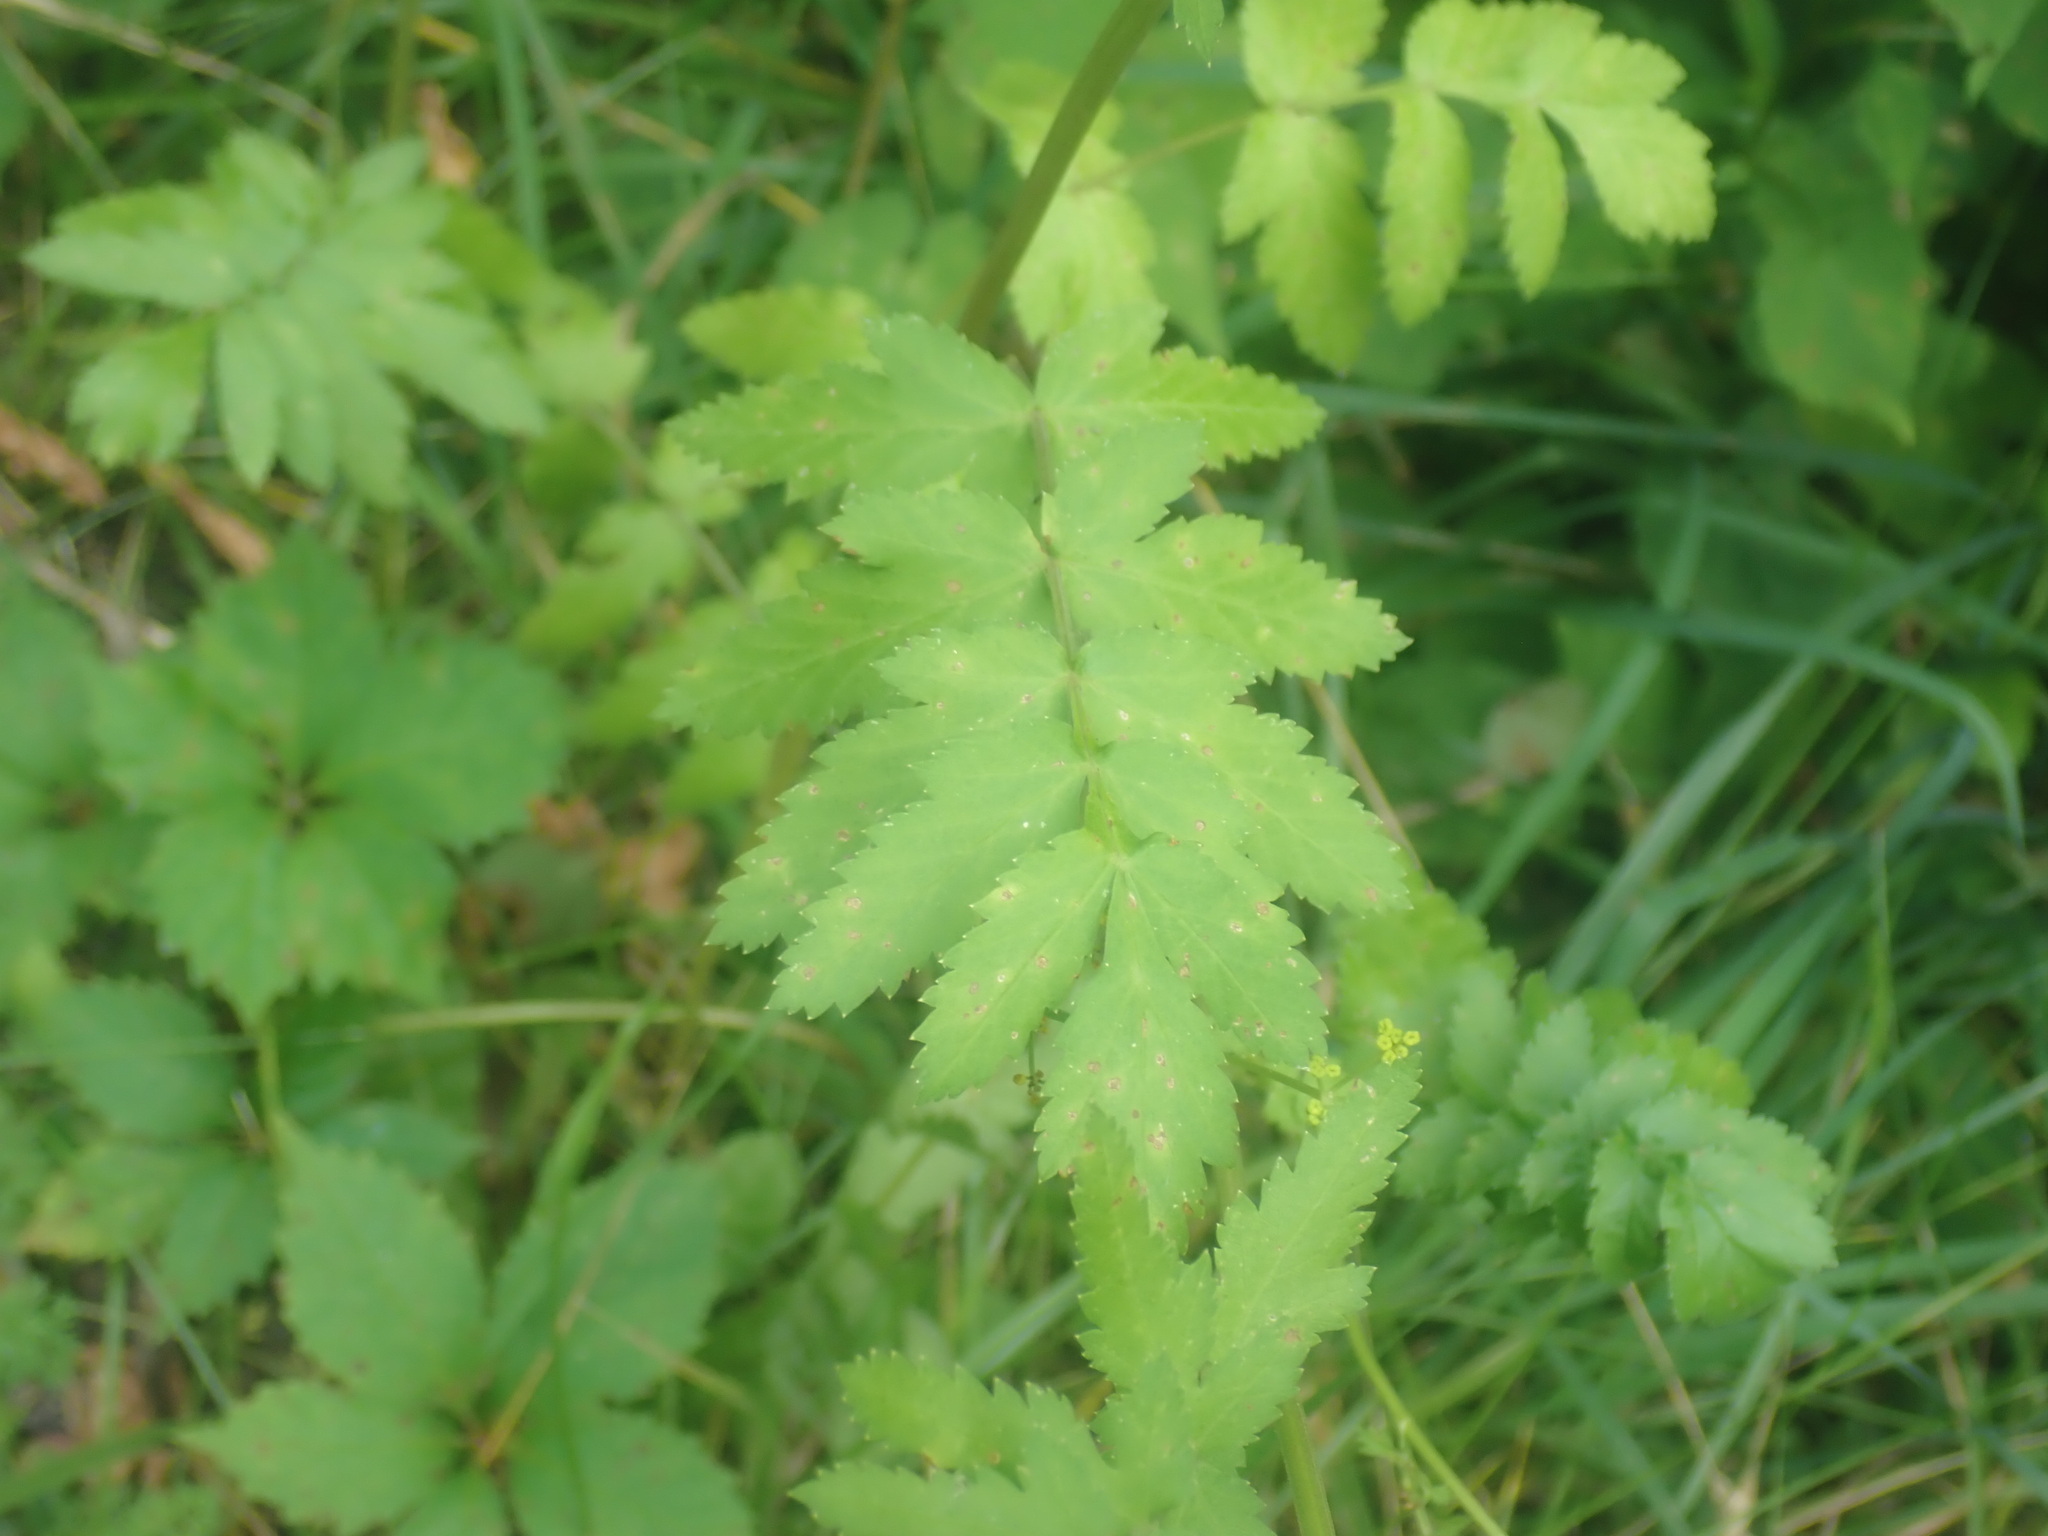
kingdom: Plantae
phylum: Tracheophyta
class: Magnoliopsida
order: Apiales
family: Apiaceae
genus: Pastinaca
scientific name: Pastinaca sativa
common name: Wild parsnip
